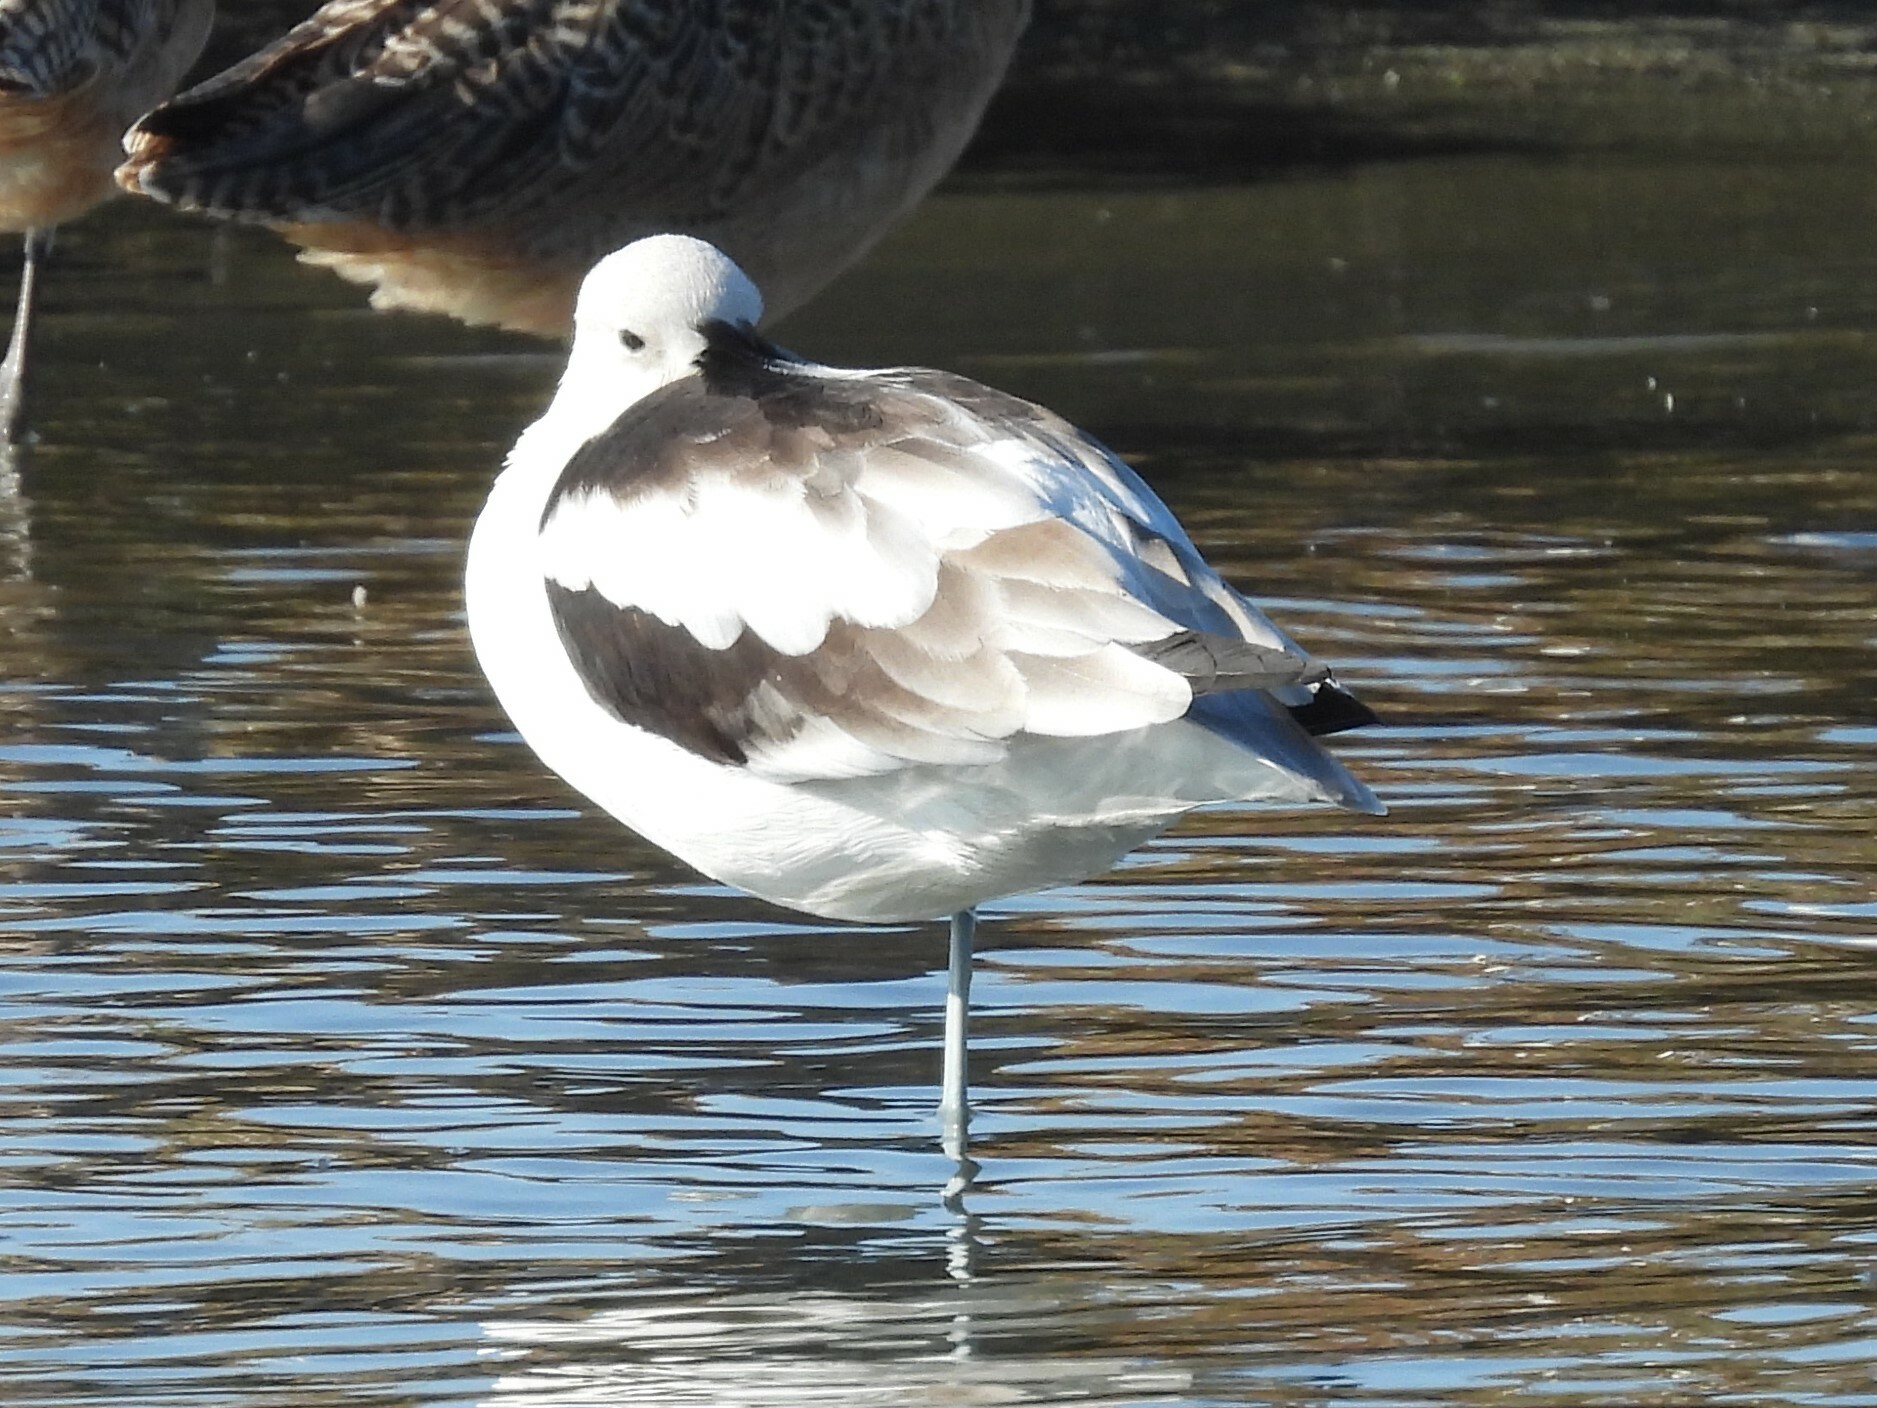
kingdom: Animalia
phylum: Chordata
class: Aves
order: Charadriiformes
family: Recurvirostridae
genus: Recurvirostra
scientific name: Recurvirostra americana
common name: American avocet
